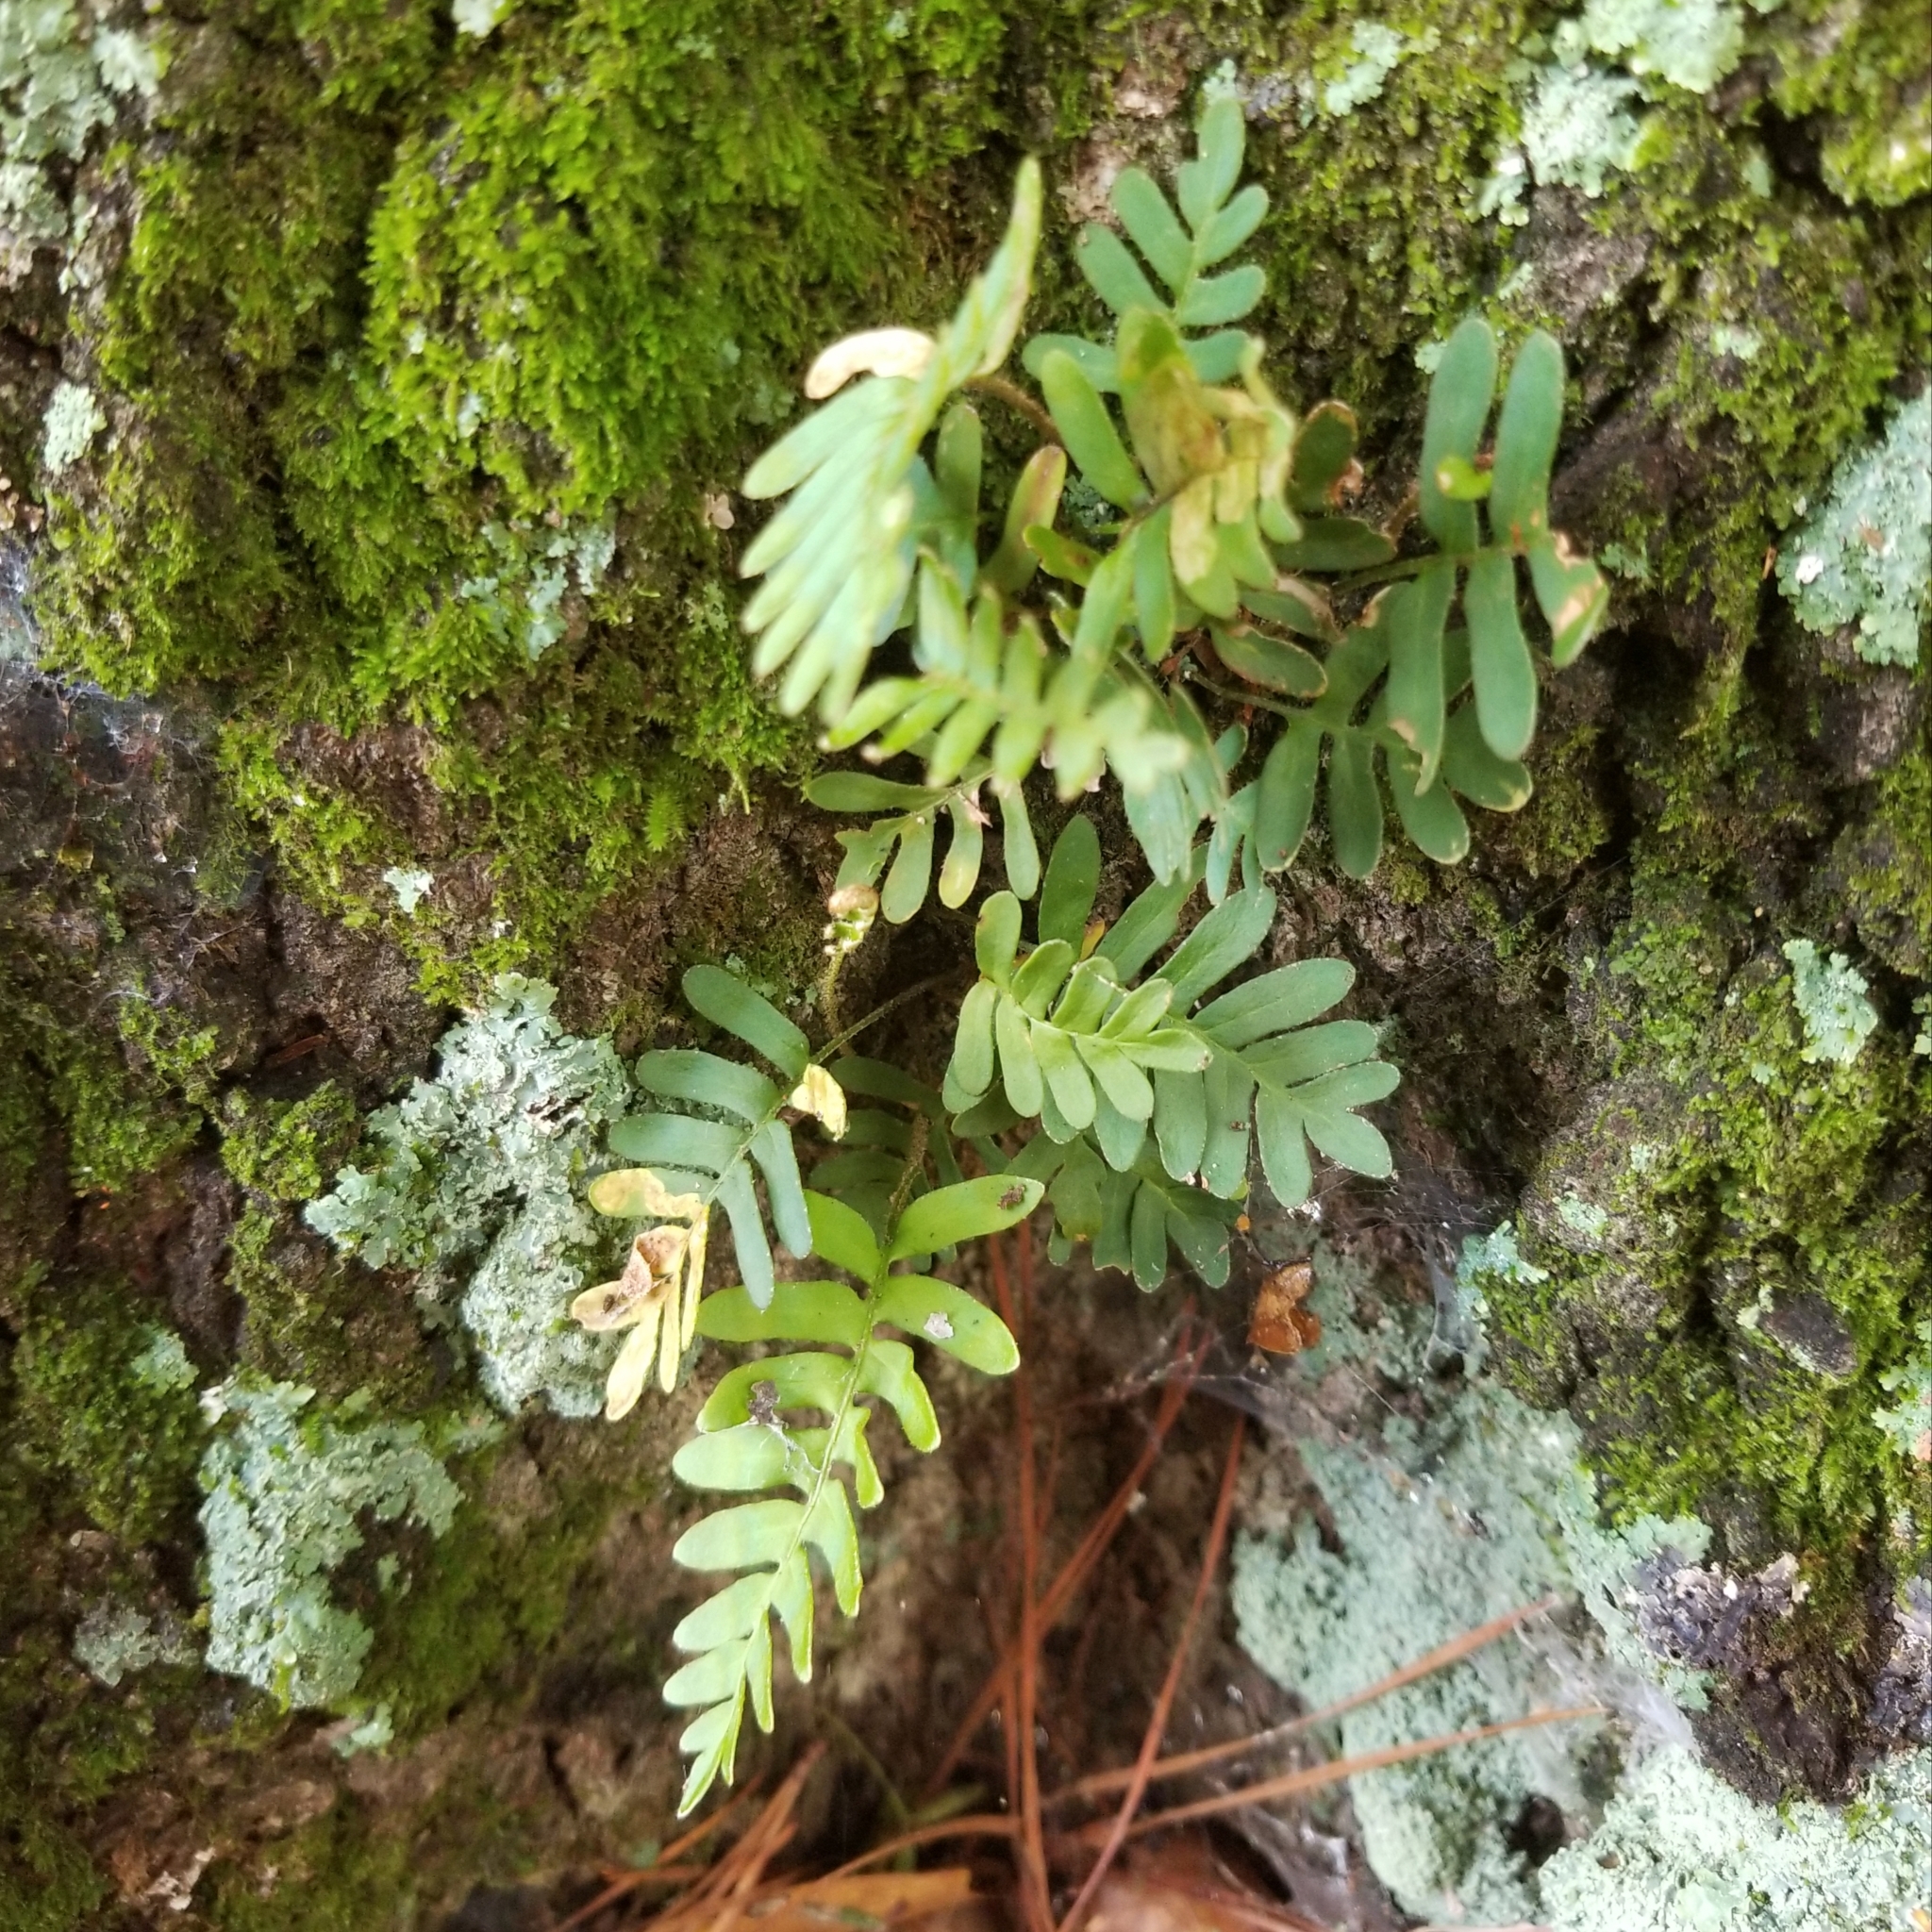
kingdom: Plantae
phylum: Tracheophyta
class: Polypodiopsida
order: Polypodiales
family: Polypodiaceae
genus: Pleopeltis
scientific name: Pleopeltis michauxiana
